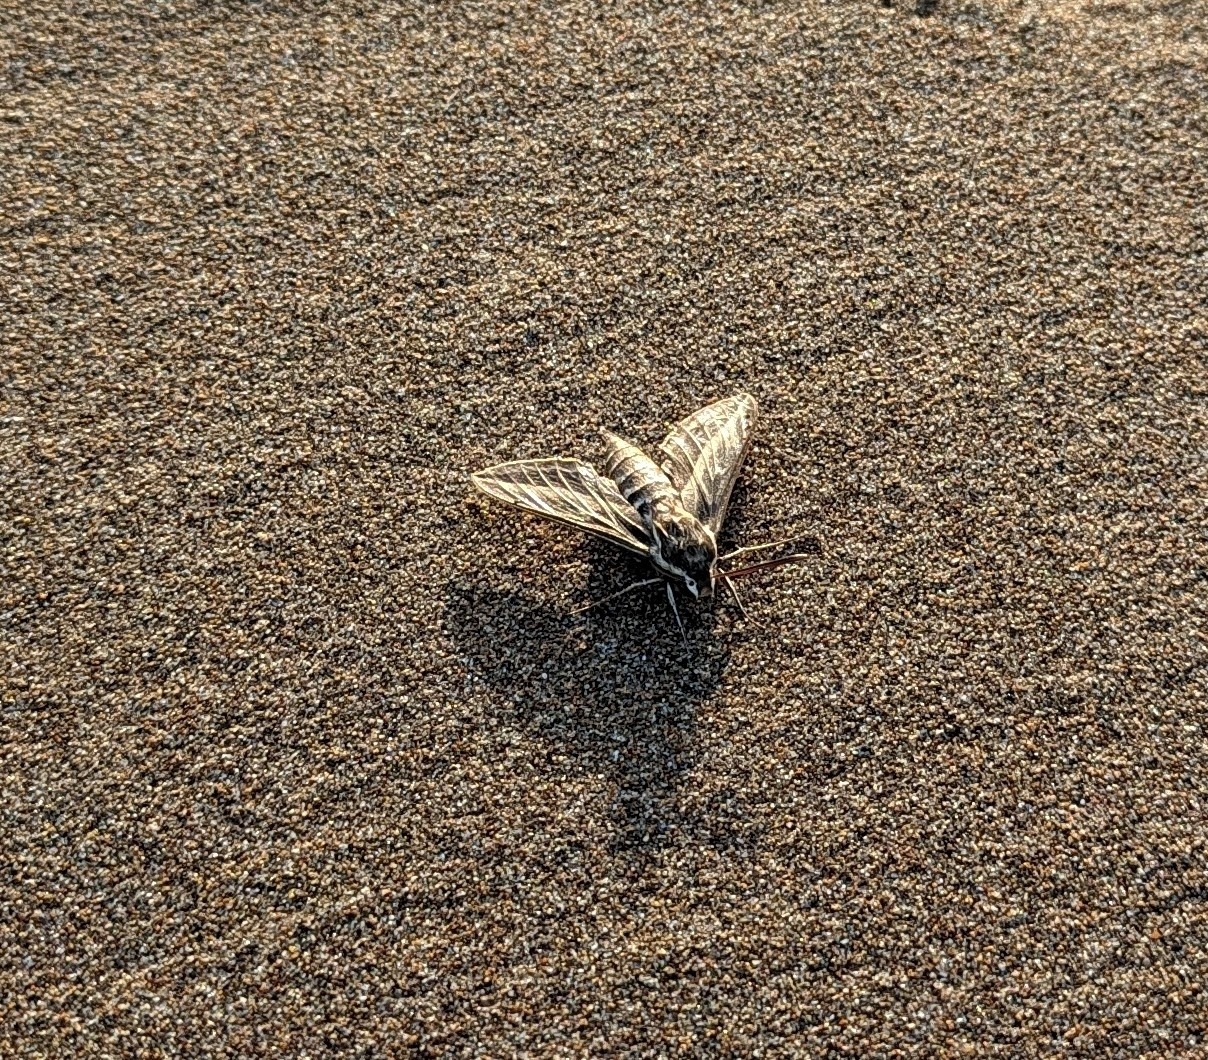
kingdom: Animalia
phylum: Arthropoda
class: Insecta
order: Lepidoptera
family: Sphingidae
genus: Hyles
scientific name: Hyles livornica
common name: Striped hawk-moth
